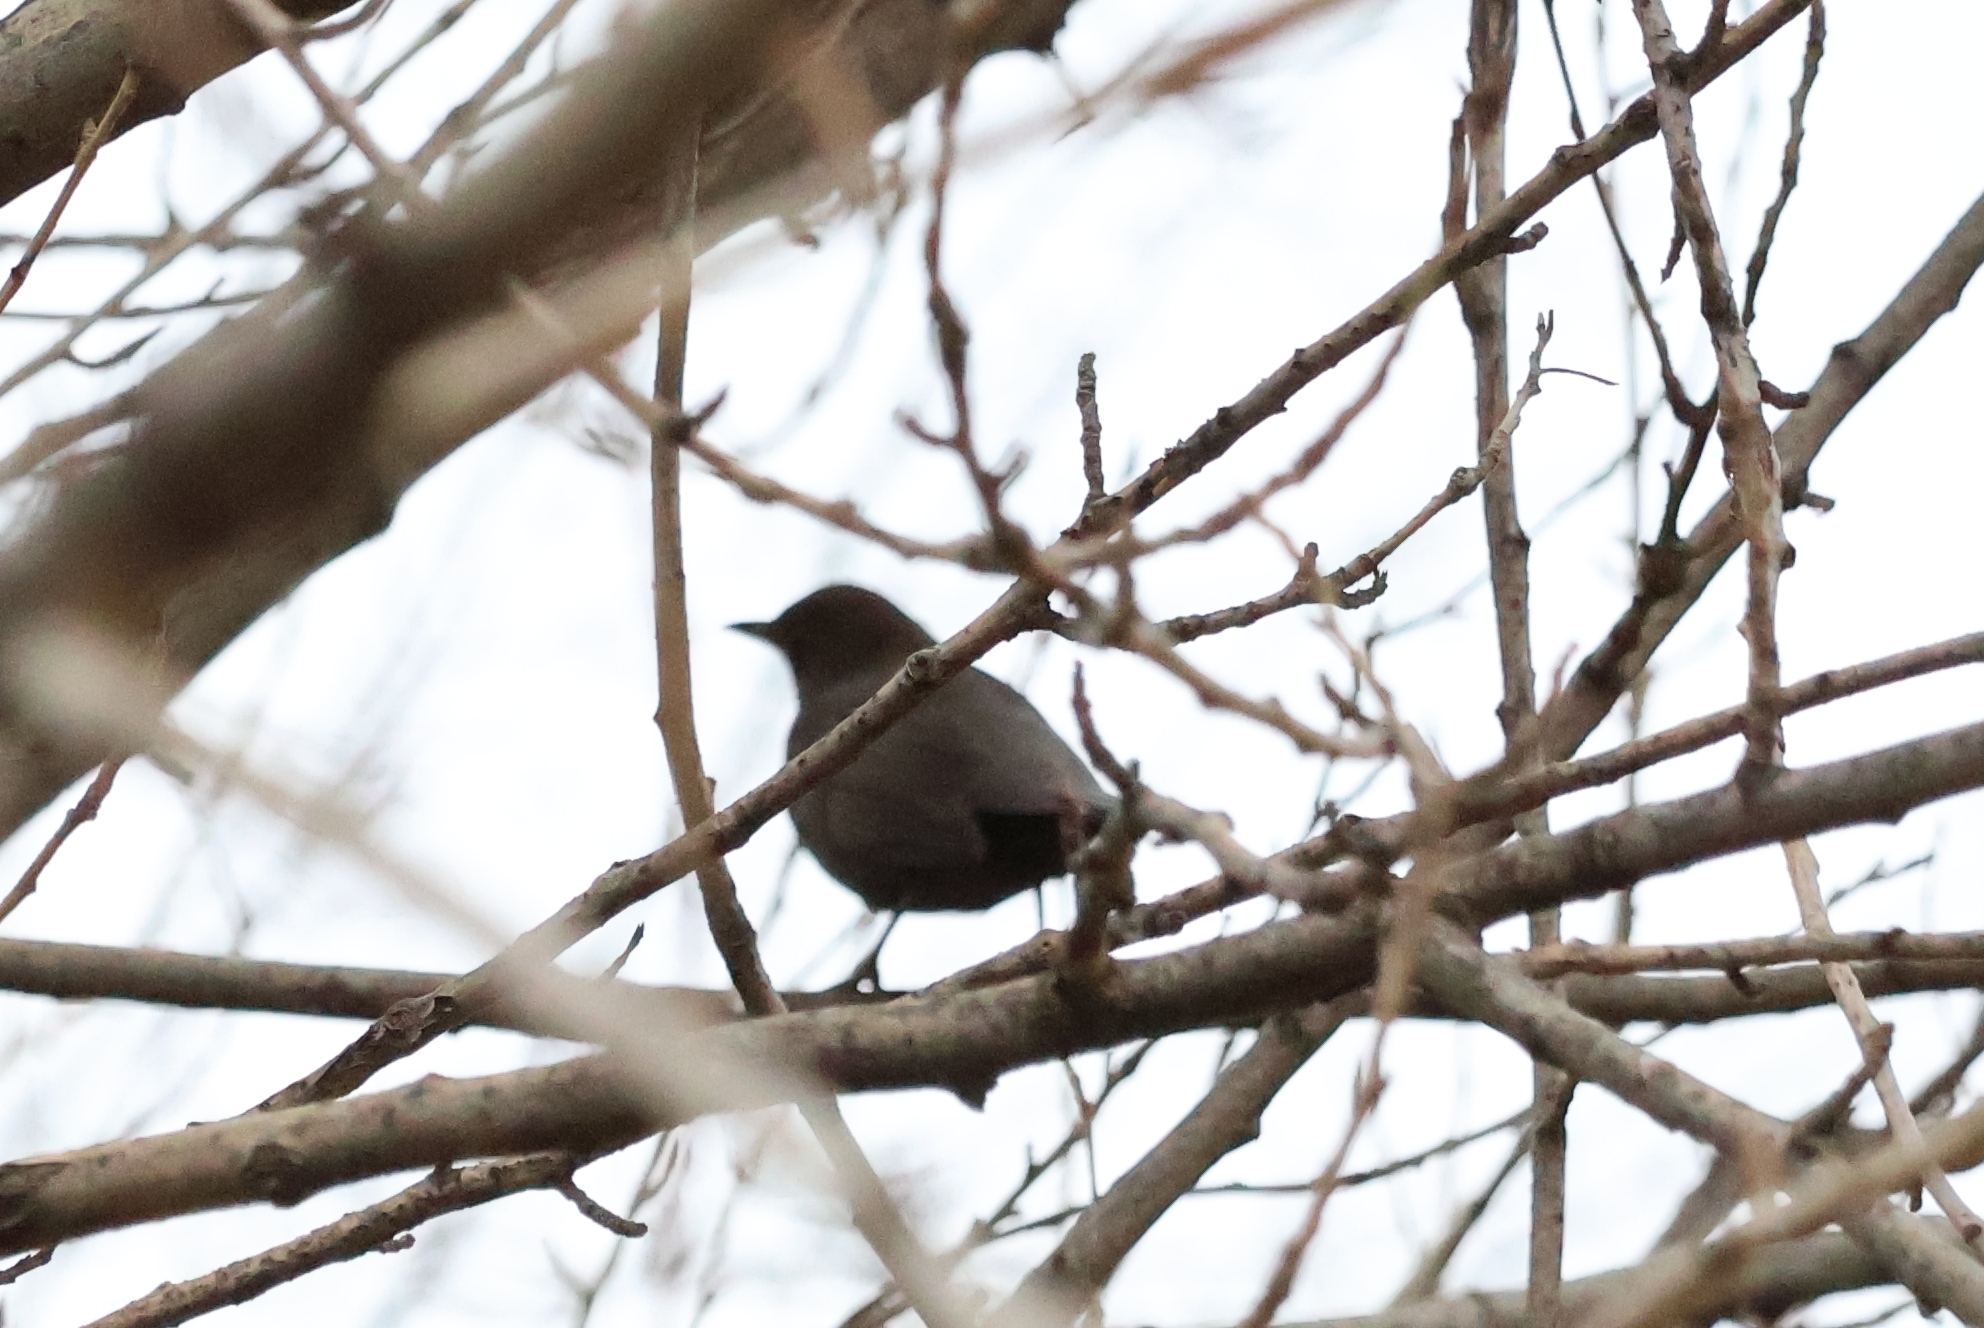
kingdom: Animalia
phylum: Chordata
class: Aves
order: Passeriformes
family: Turdidae
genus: Turdus
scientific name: Turdus merula
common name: Common blackbird
